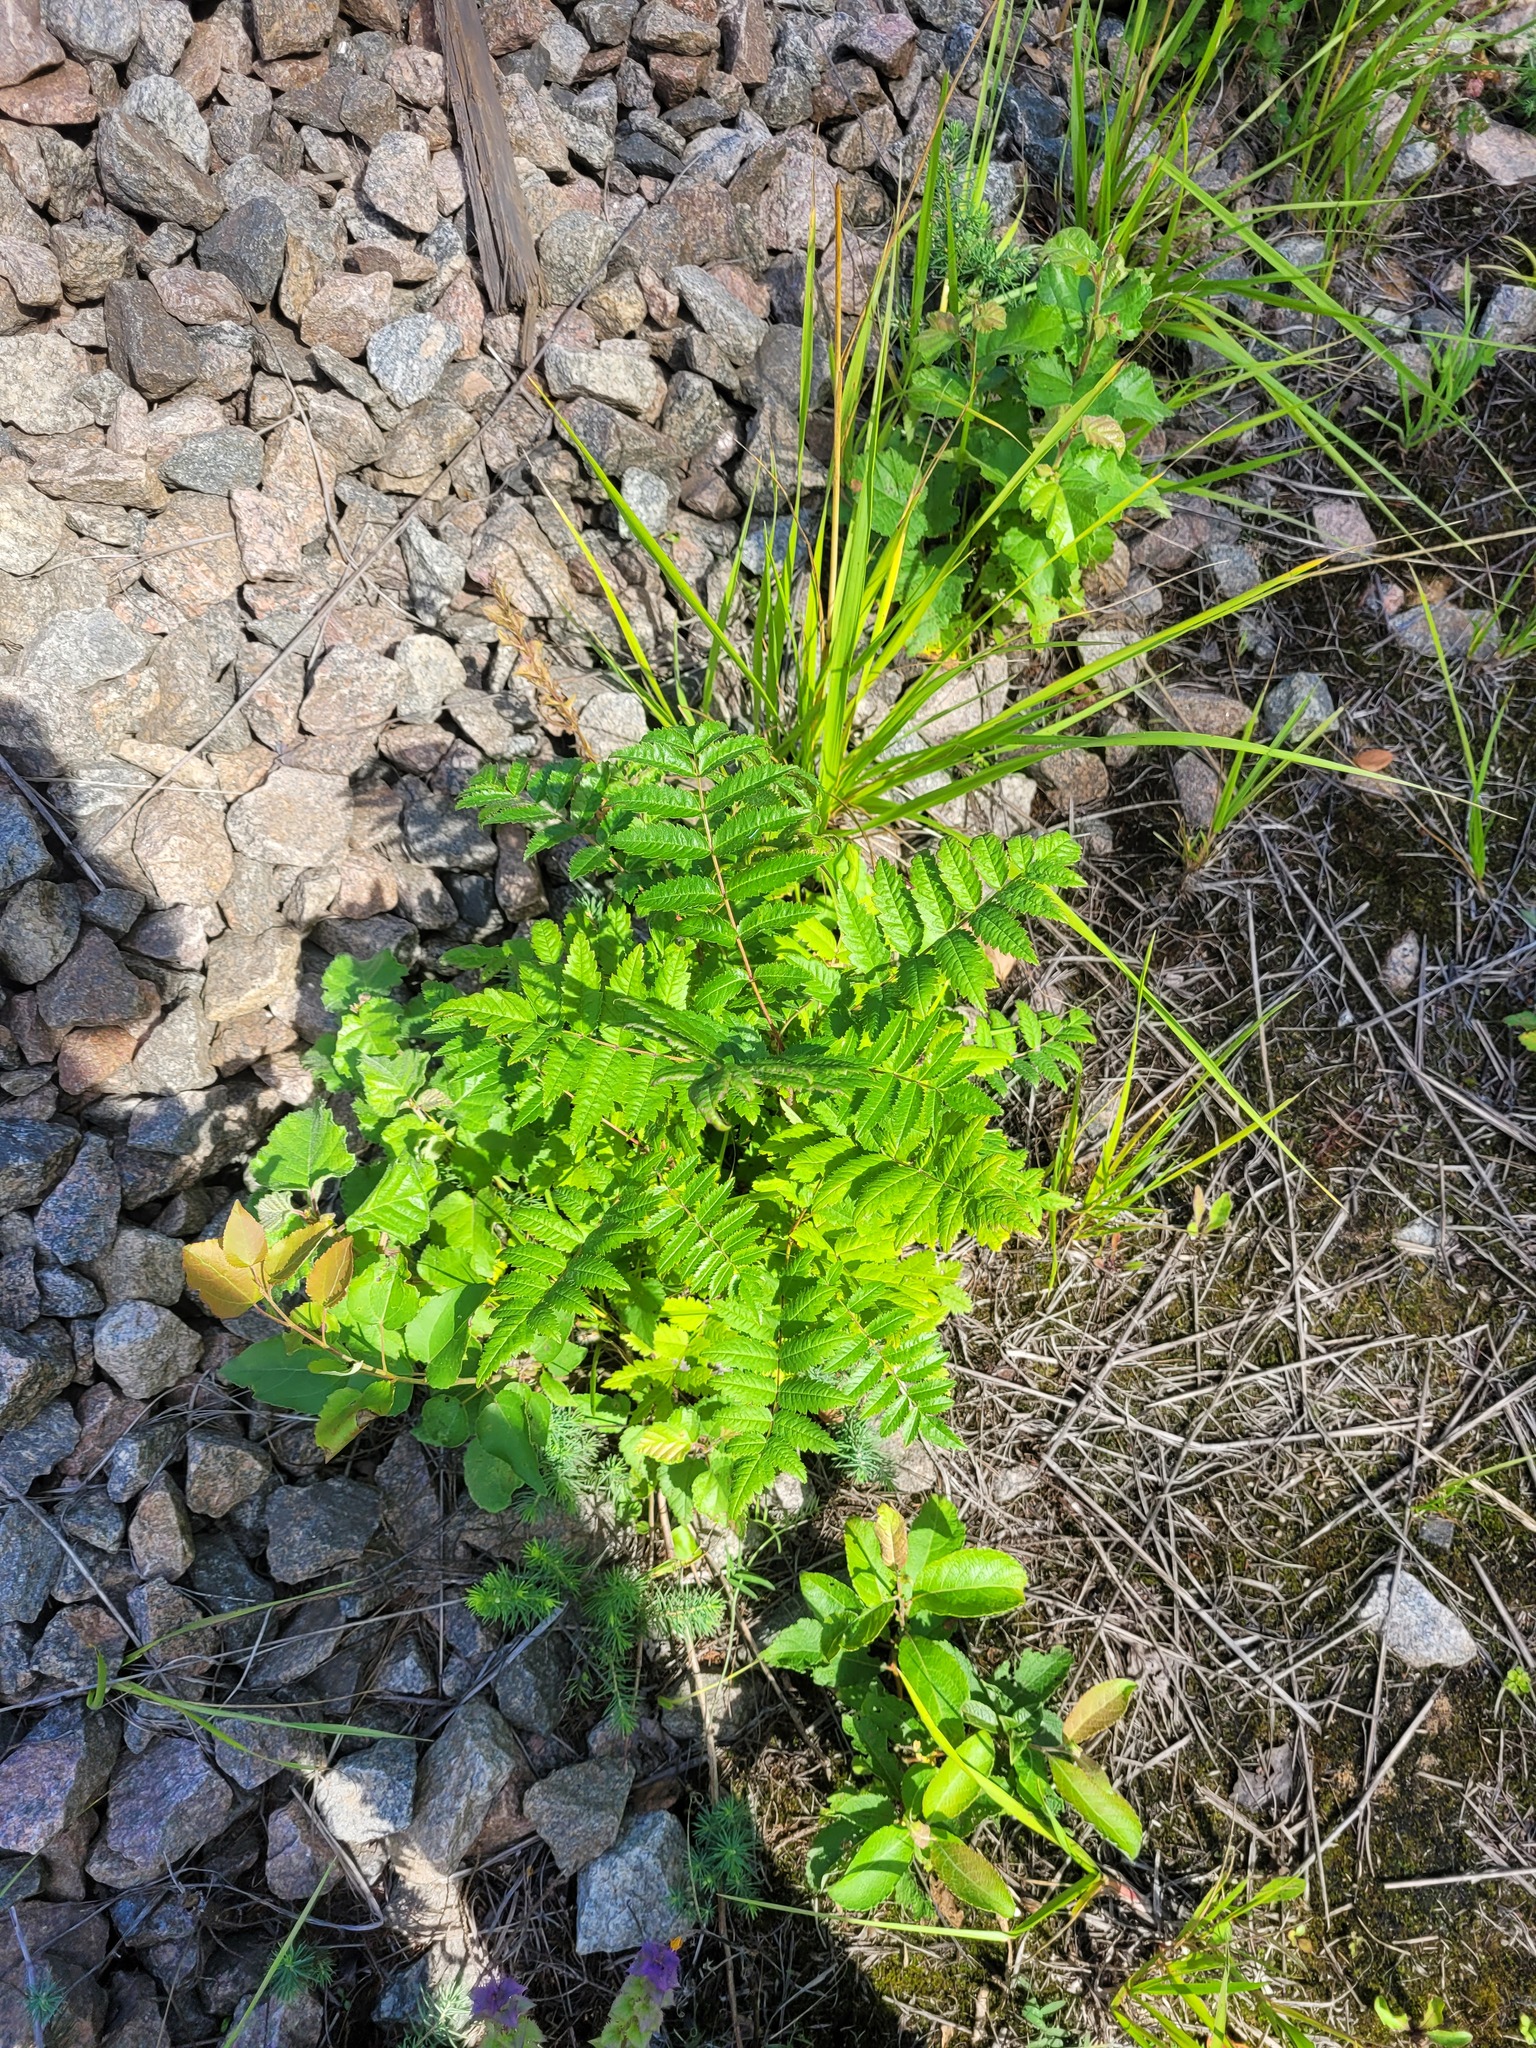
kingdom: Plantae
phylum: Tracheophyta
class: Magnoliopsida
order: Rosales
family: Rosaceae
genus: Sorbus
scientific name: Sorbus aucuparia
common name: Rowan
